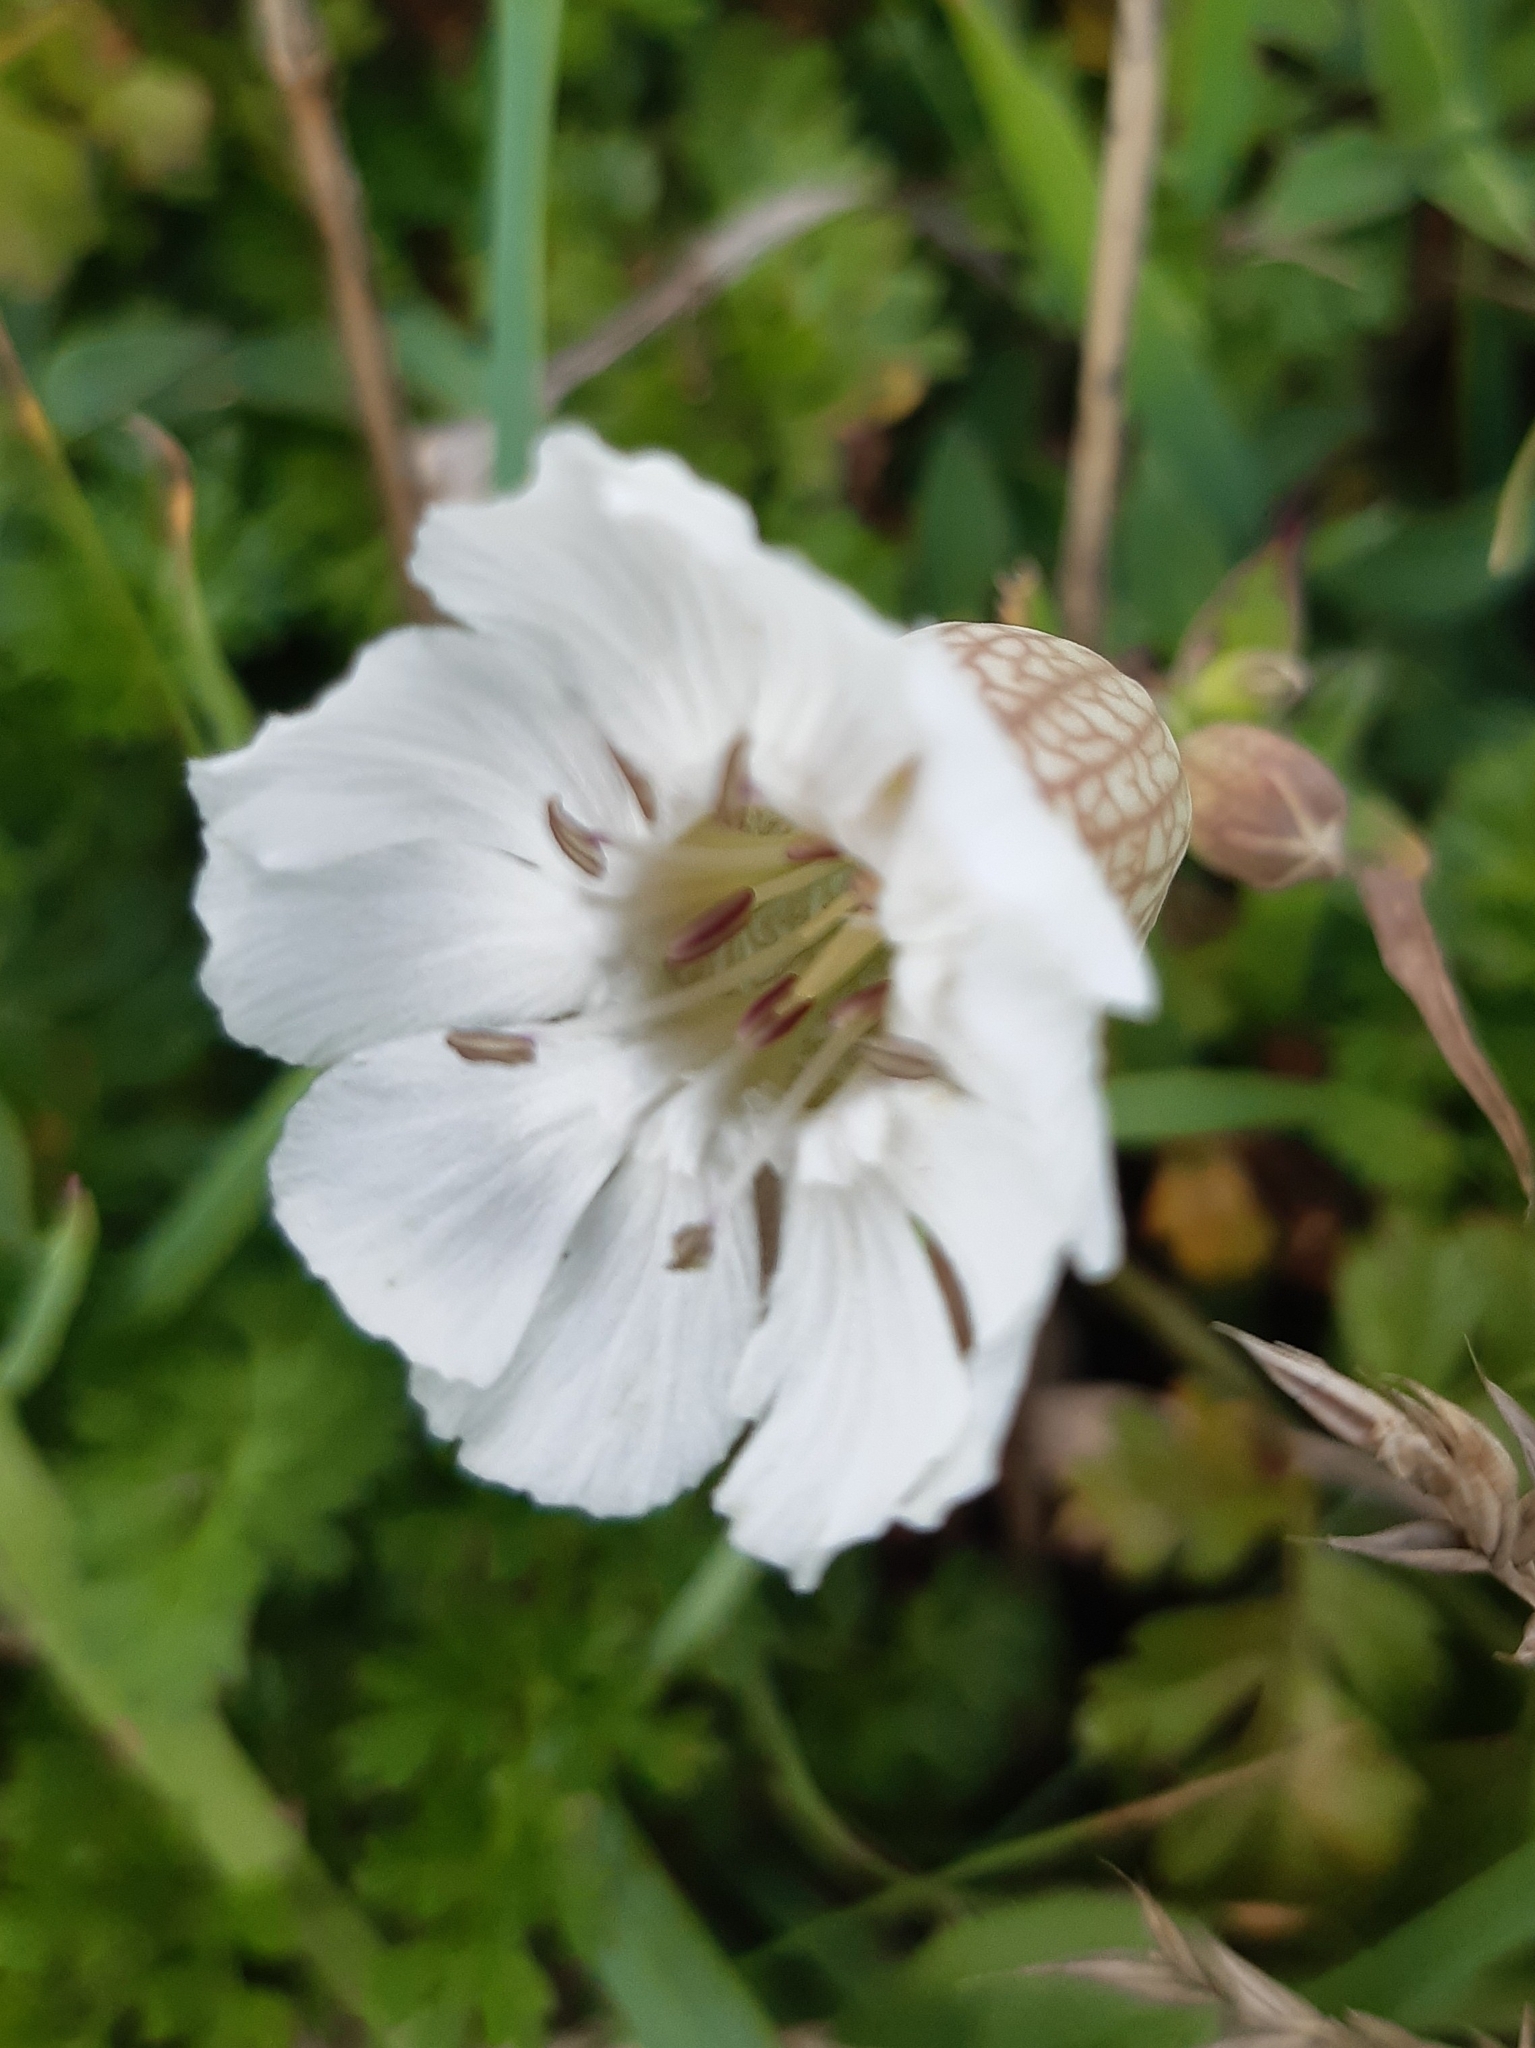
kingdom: Plantae
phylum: Tracheophyta
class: Magnoliopsida
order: Caryophyllales
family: Caryophyllaceae
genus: Silene
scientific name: Silene uniflora
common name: Sea campion
